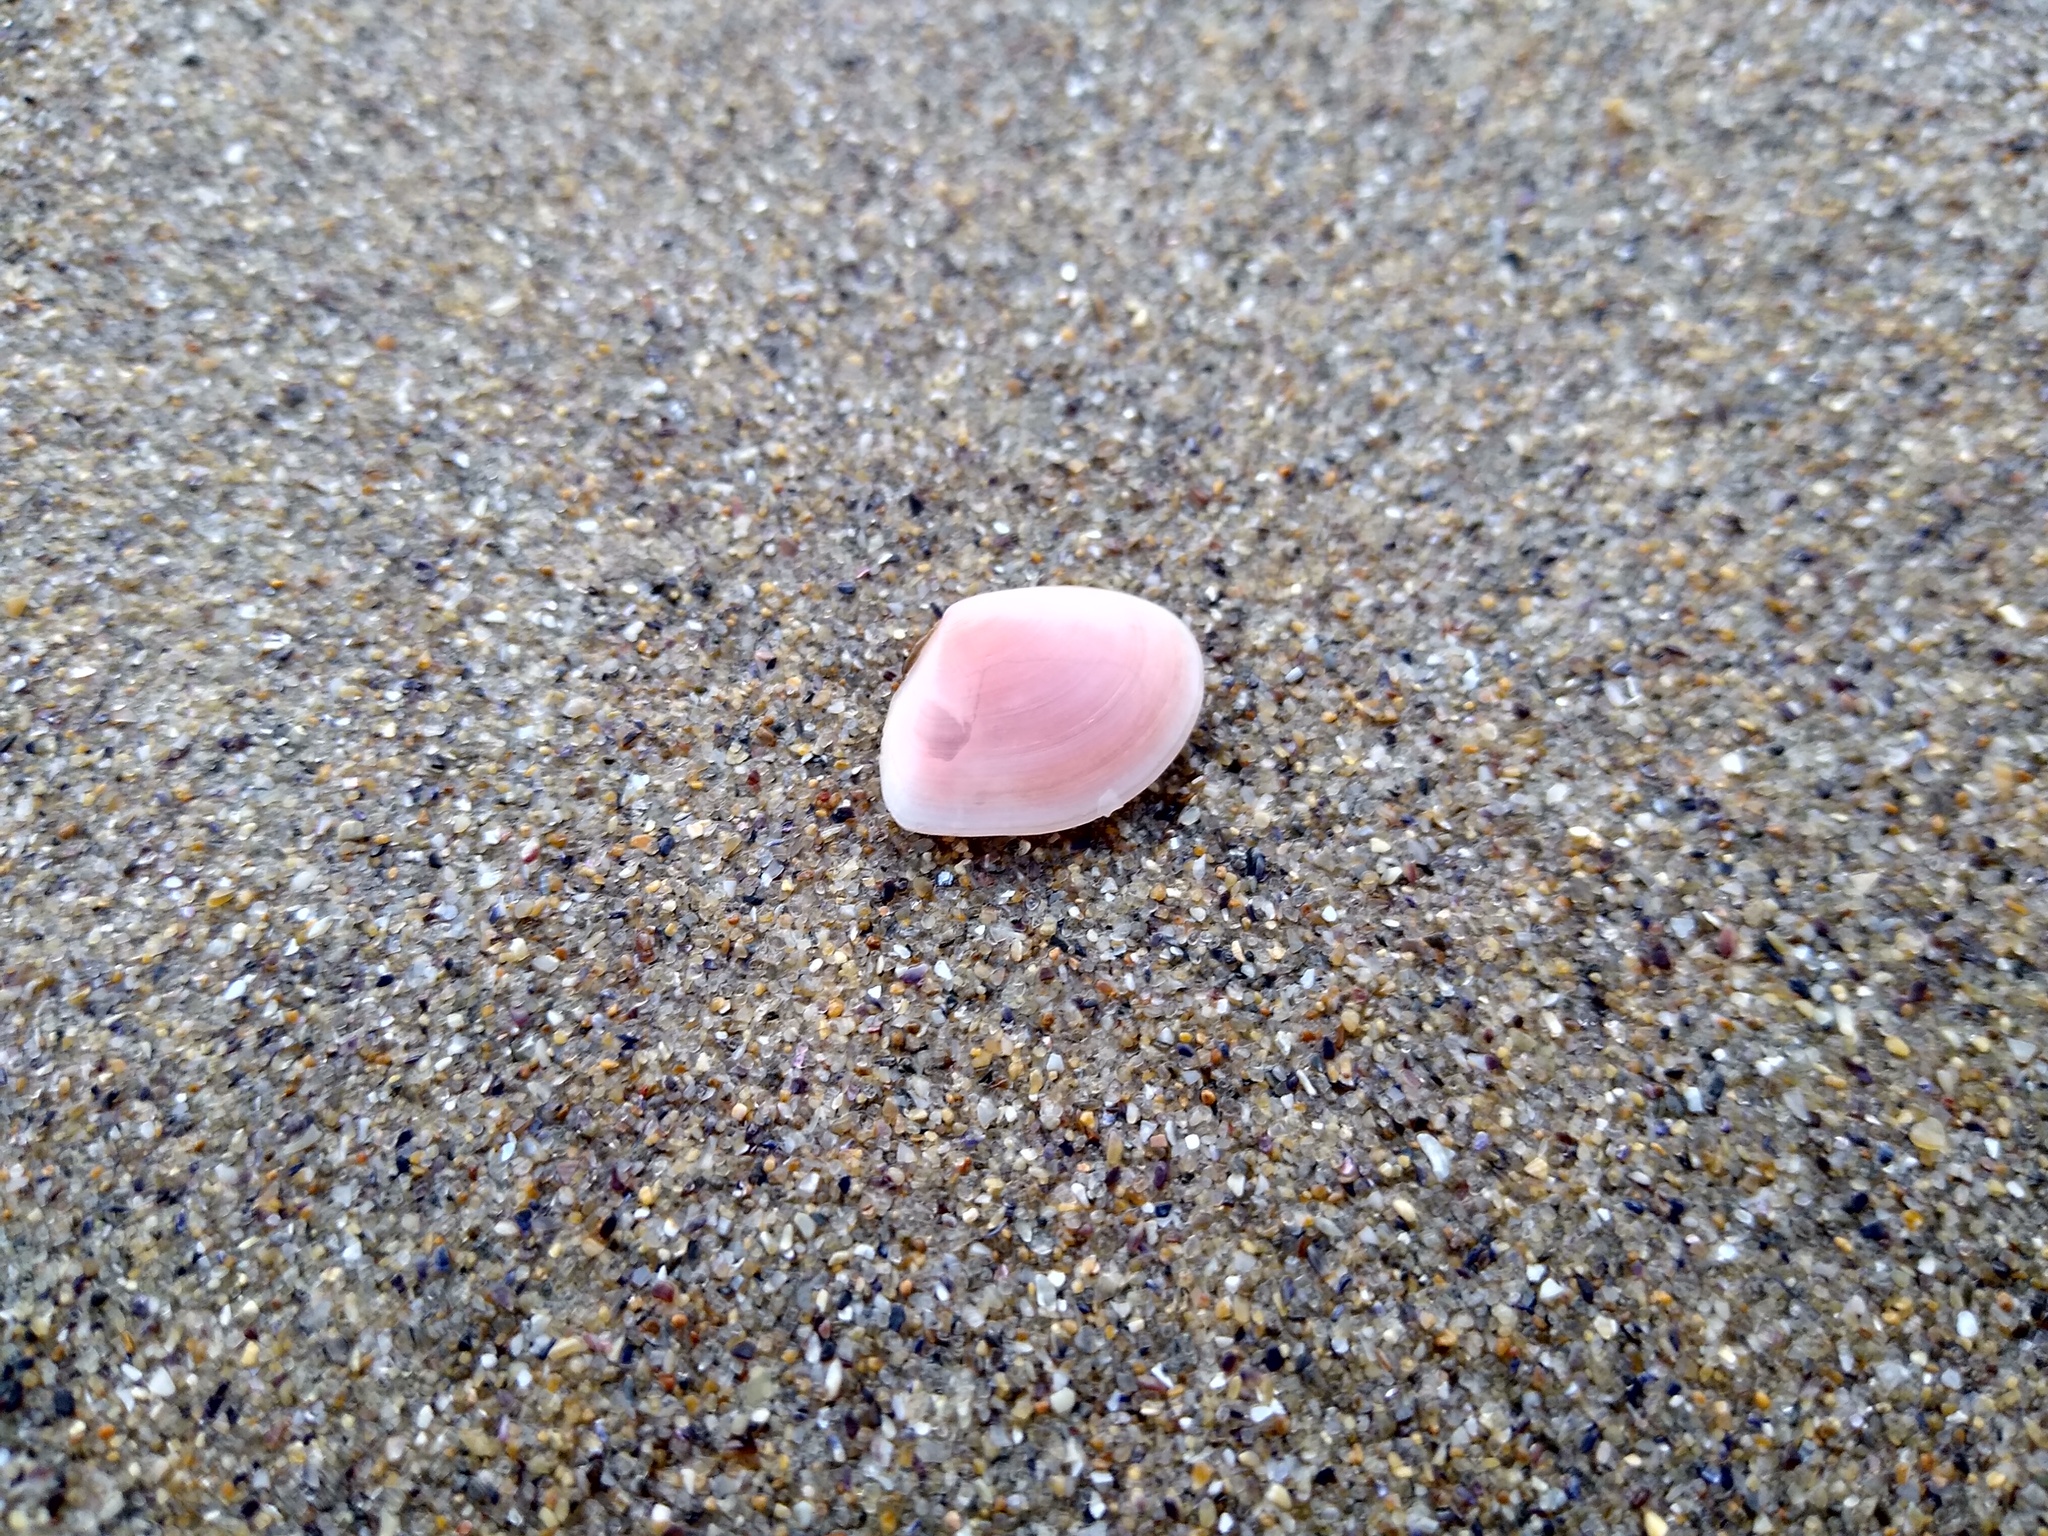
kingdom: Animalia
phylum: Mollusca
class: Bivalvia
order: Cardiida
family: Tellinidae
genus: Macomangulus
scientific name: Macomangulus tenuis
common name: Thin tellin
